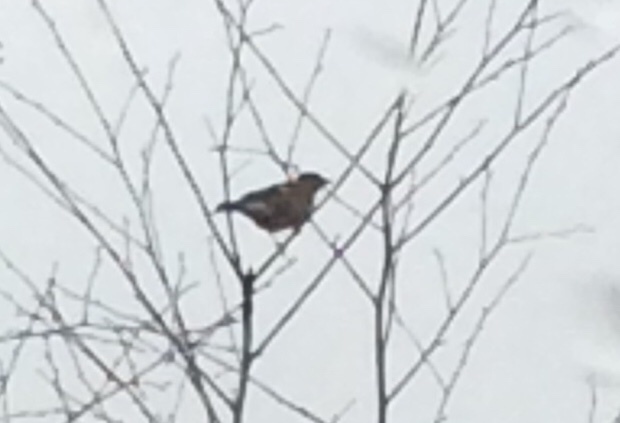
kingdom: Animalia
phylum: Chordata
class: Aves
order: Passeriformes
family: Fringillidae
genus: Fringilla
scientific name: Fringilla coelebs
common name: Common chaffinch
